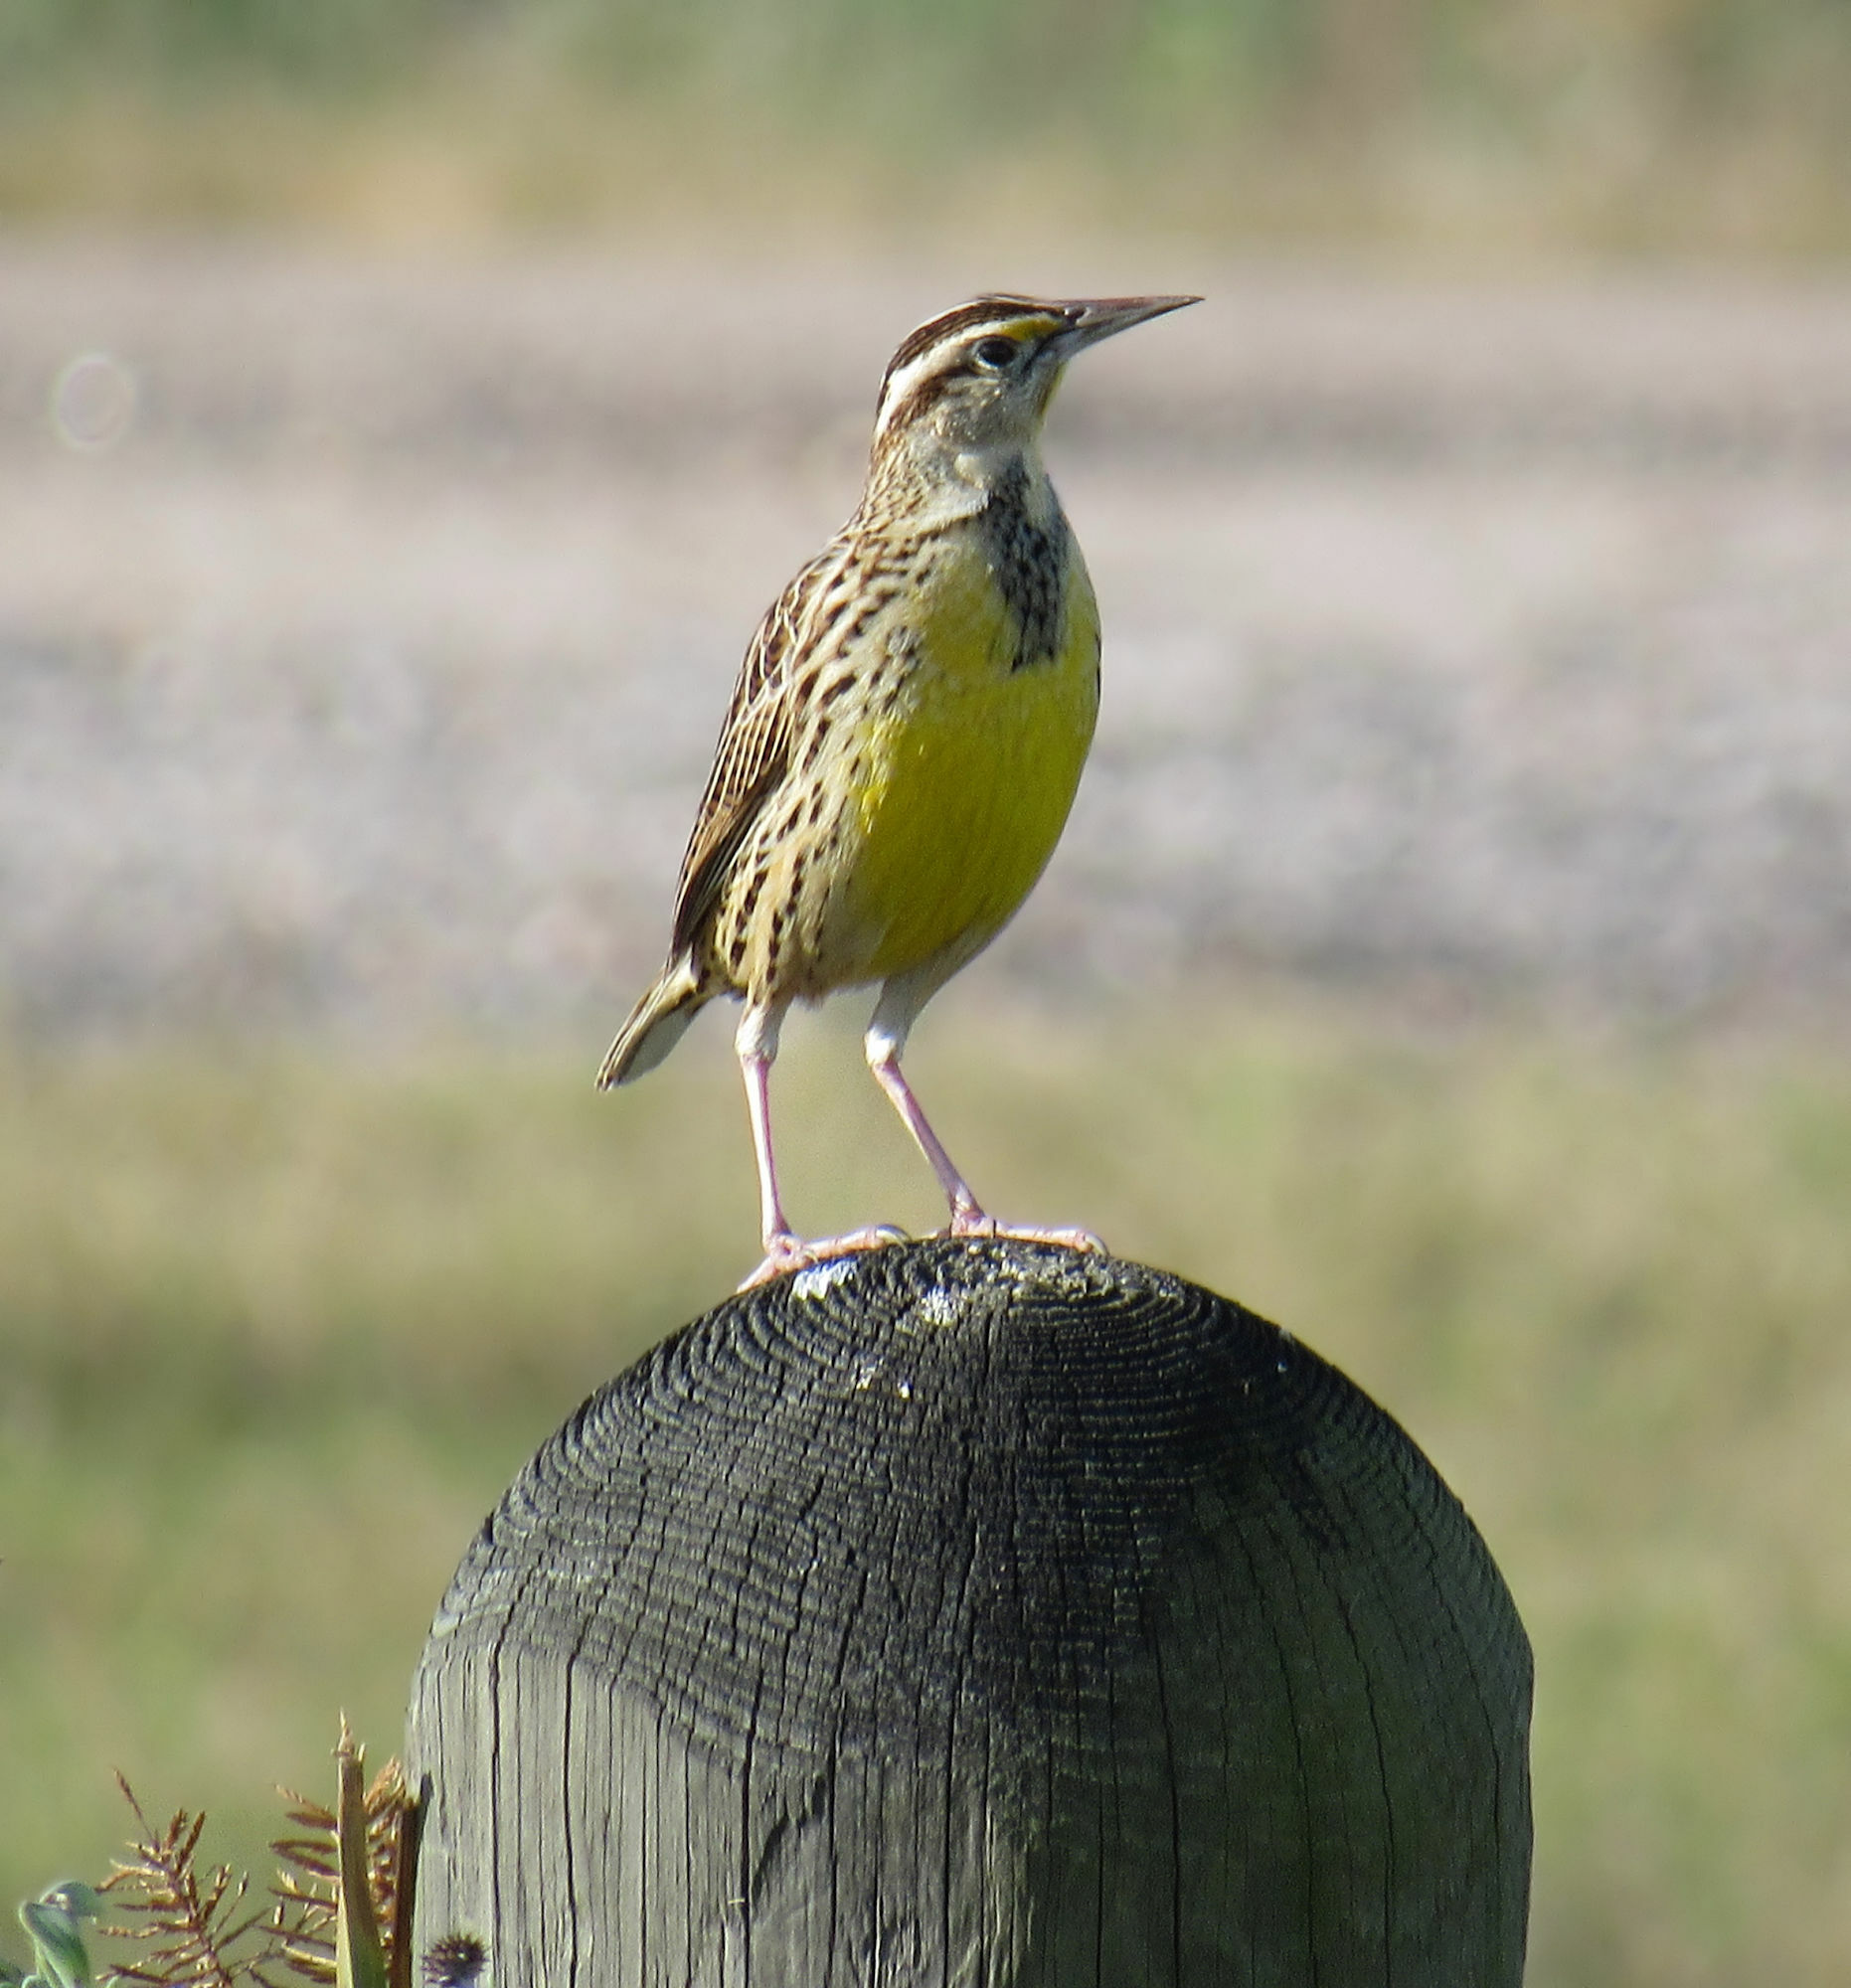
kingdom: Animalia
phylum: Chordata
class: Aves
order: Passeriformes
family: Icteridae
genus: Sturnella
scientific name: Sturnella magna
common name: Eastern meadowlark
